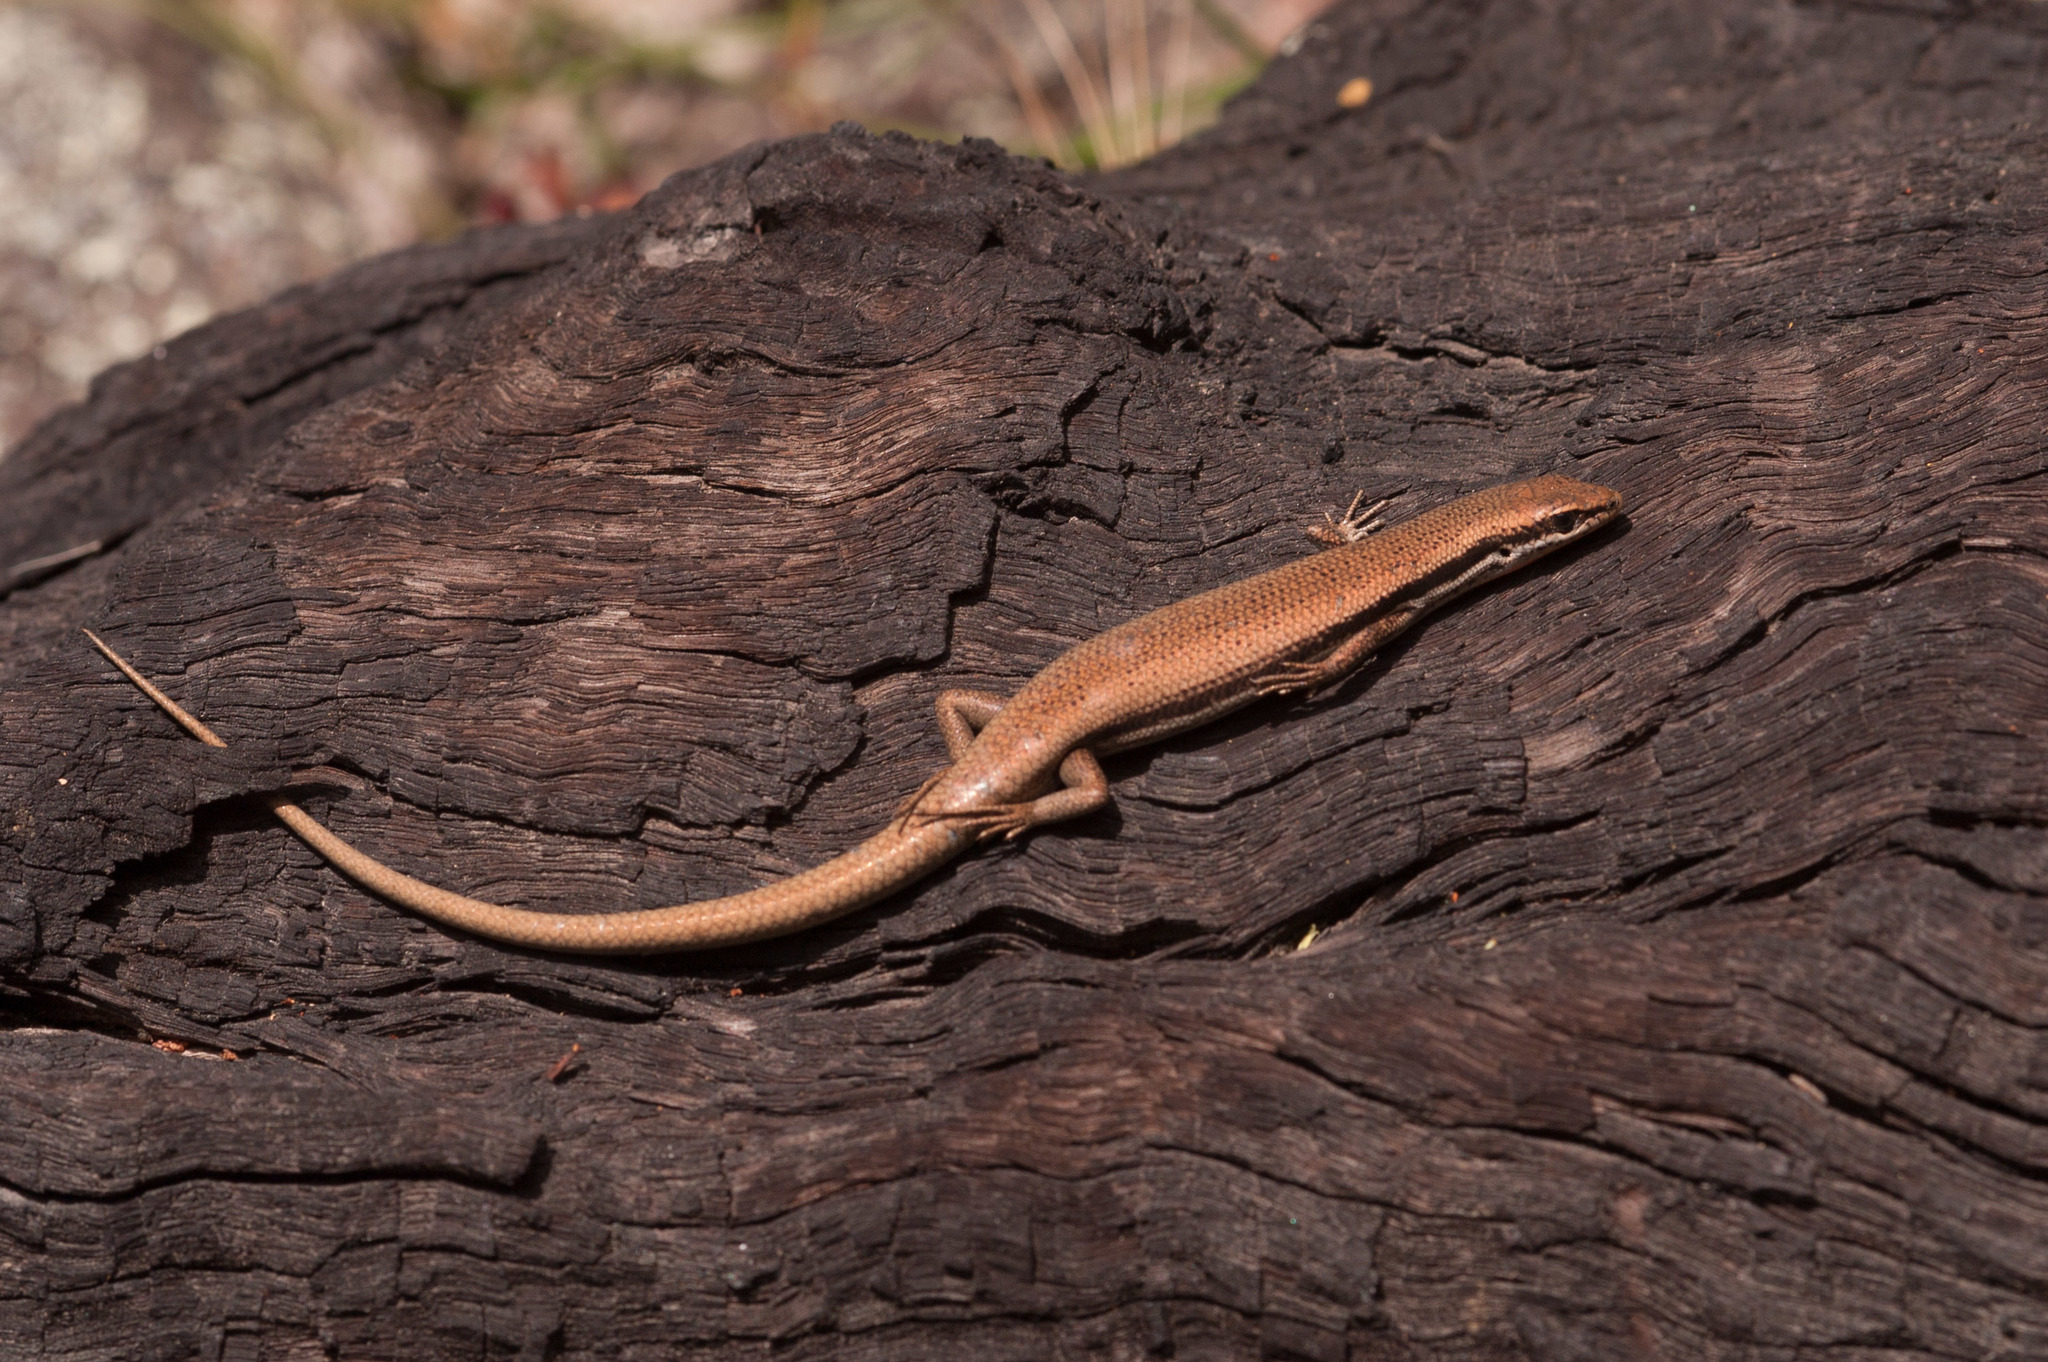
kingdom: Animalia
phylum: Chordata
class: Squamata
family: Scincidae
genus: Morethia
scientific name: Morethia boulengeri
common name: South-eastern morethia skink
